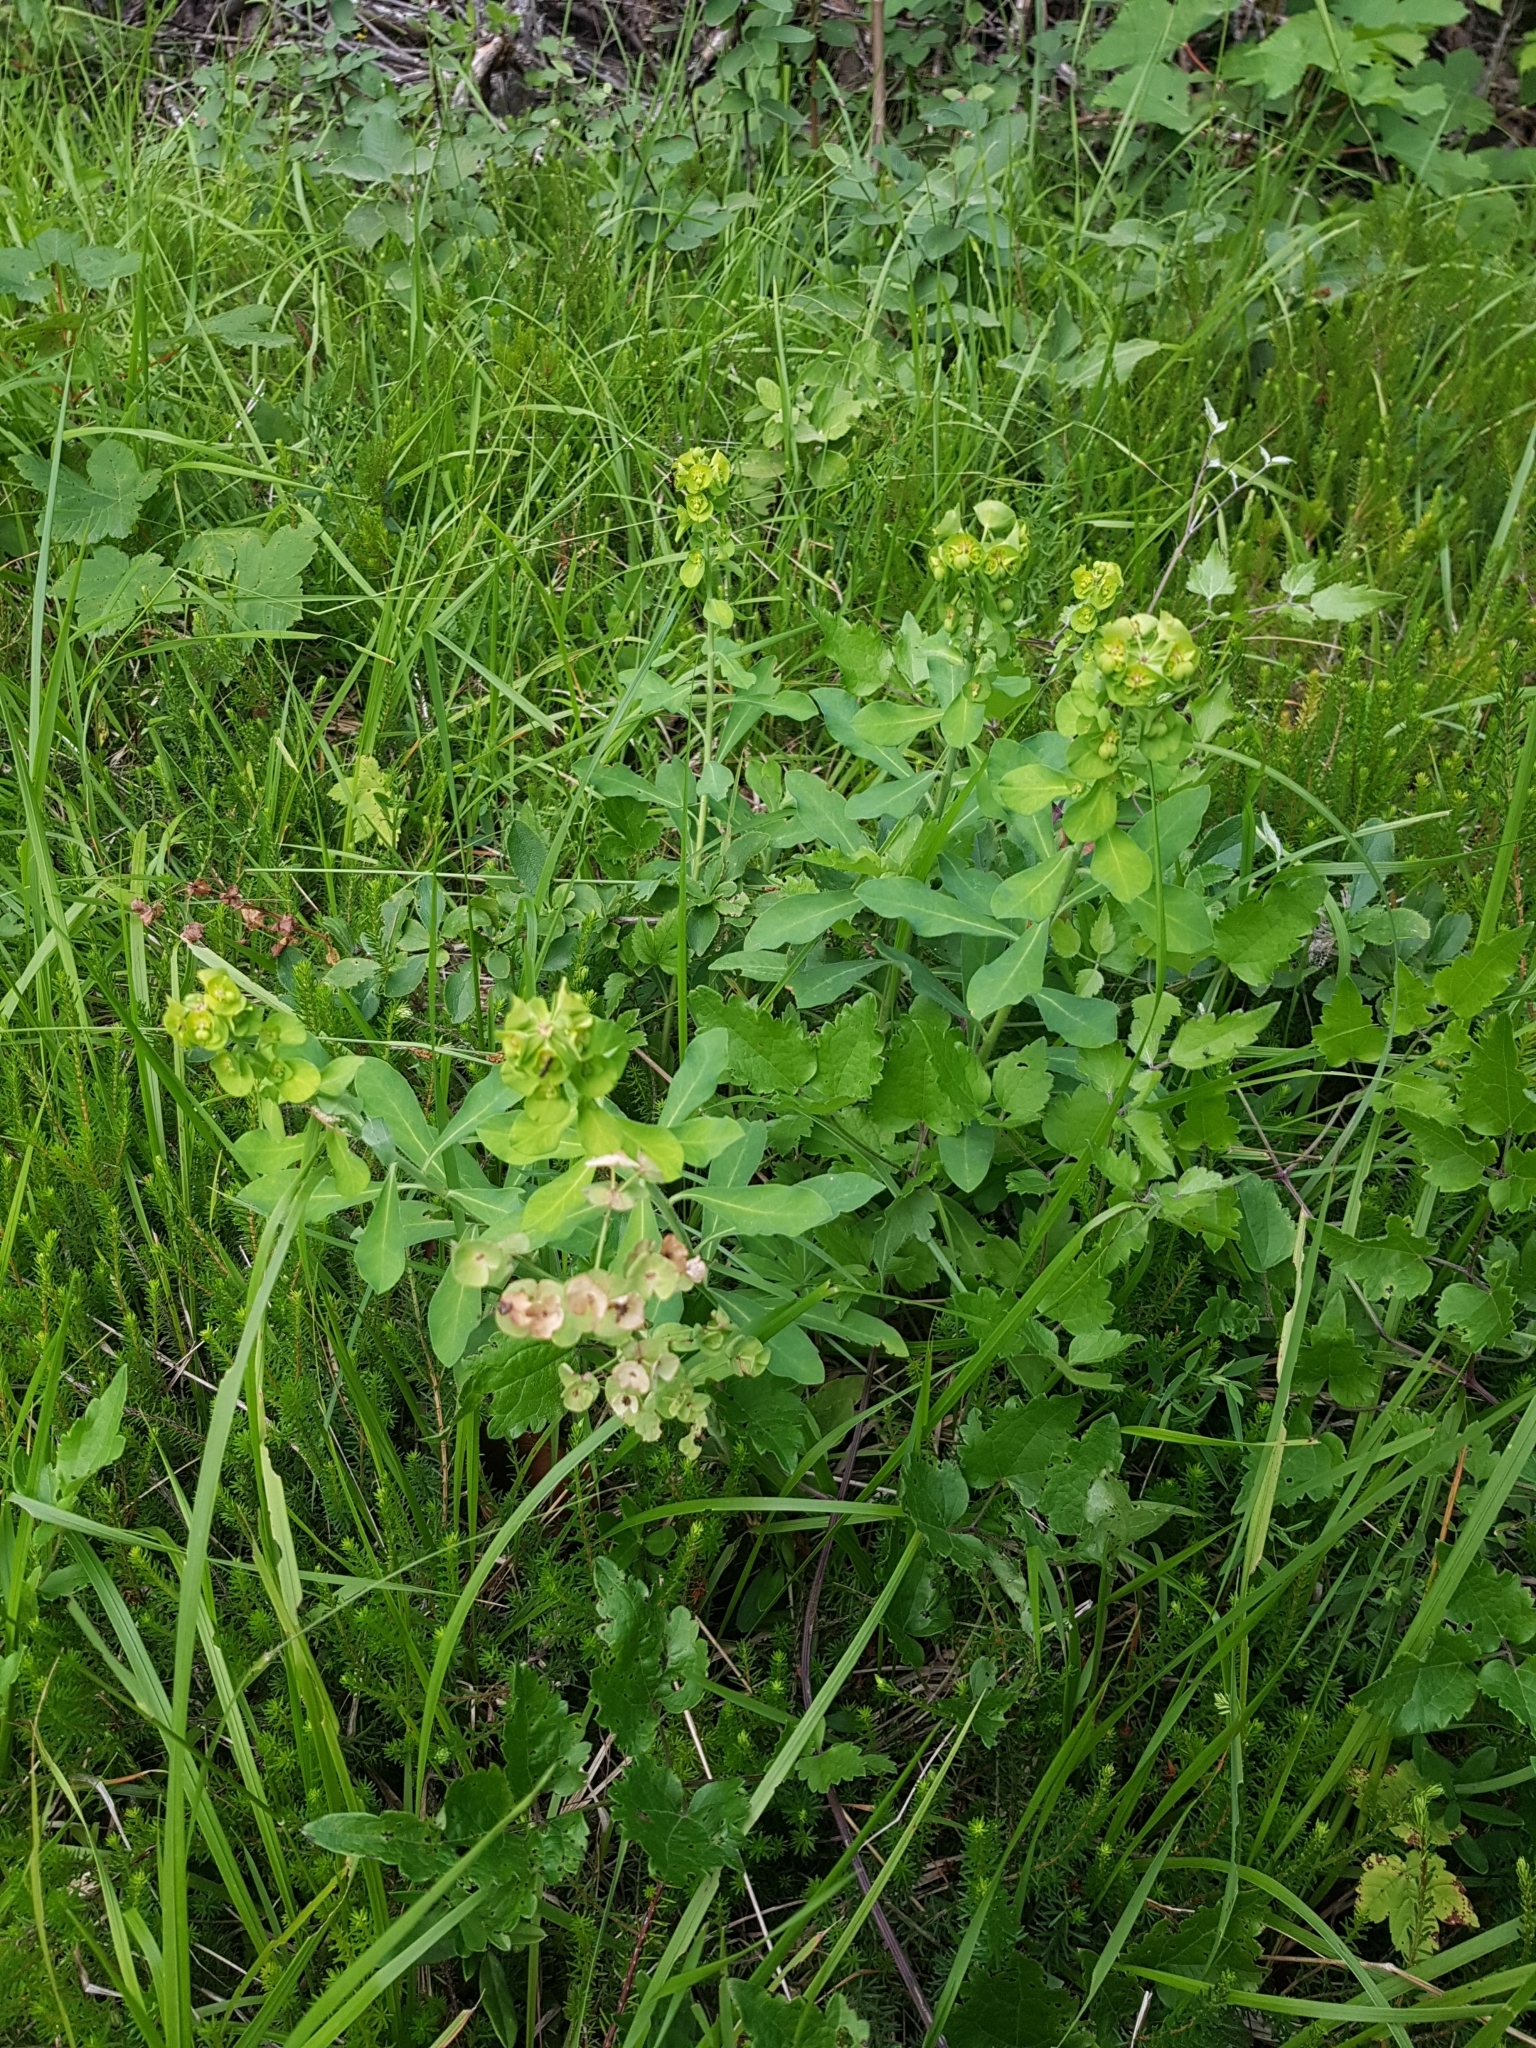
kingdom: Plantae
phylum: Tracheophyta
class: Magnoliopsida
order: Malpighiales
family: Euphorbiaceae
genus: Euphorbia
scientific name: Euphorbia amygdaloides
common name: Wood spurge
